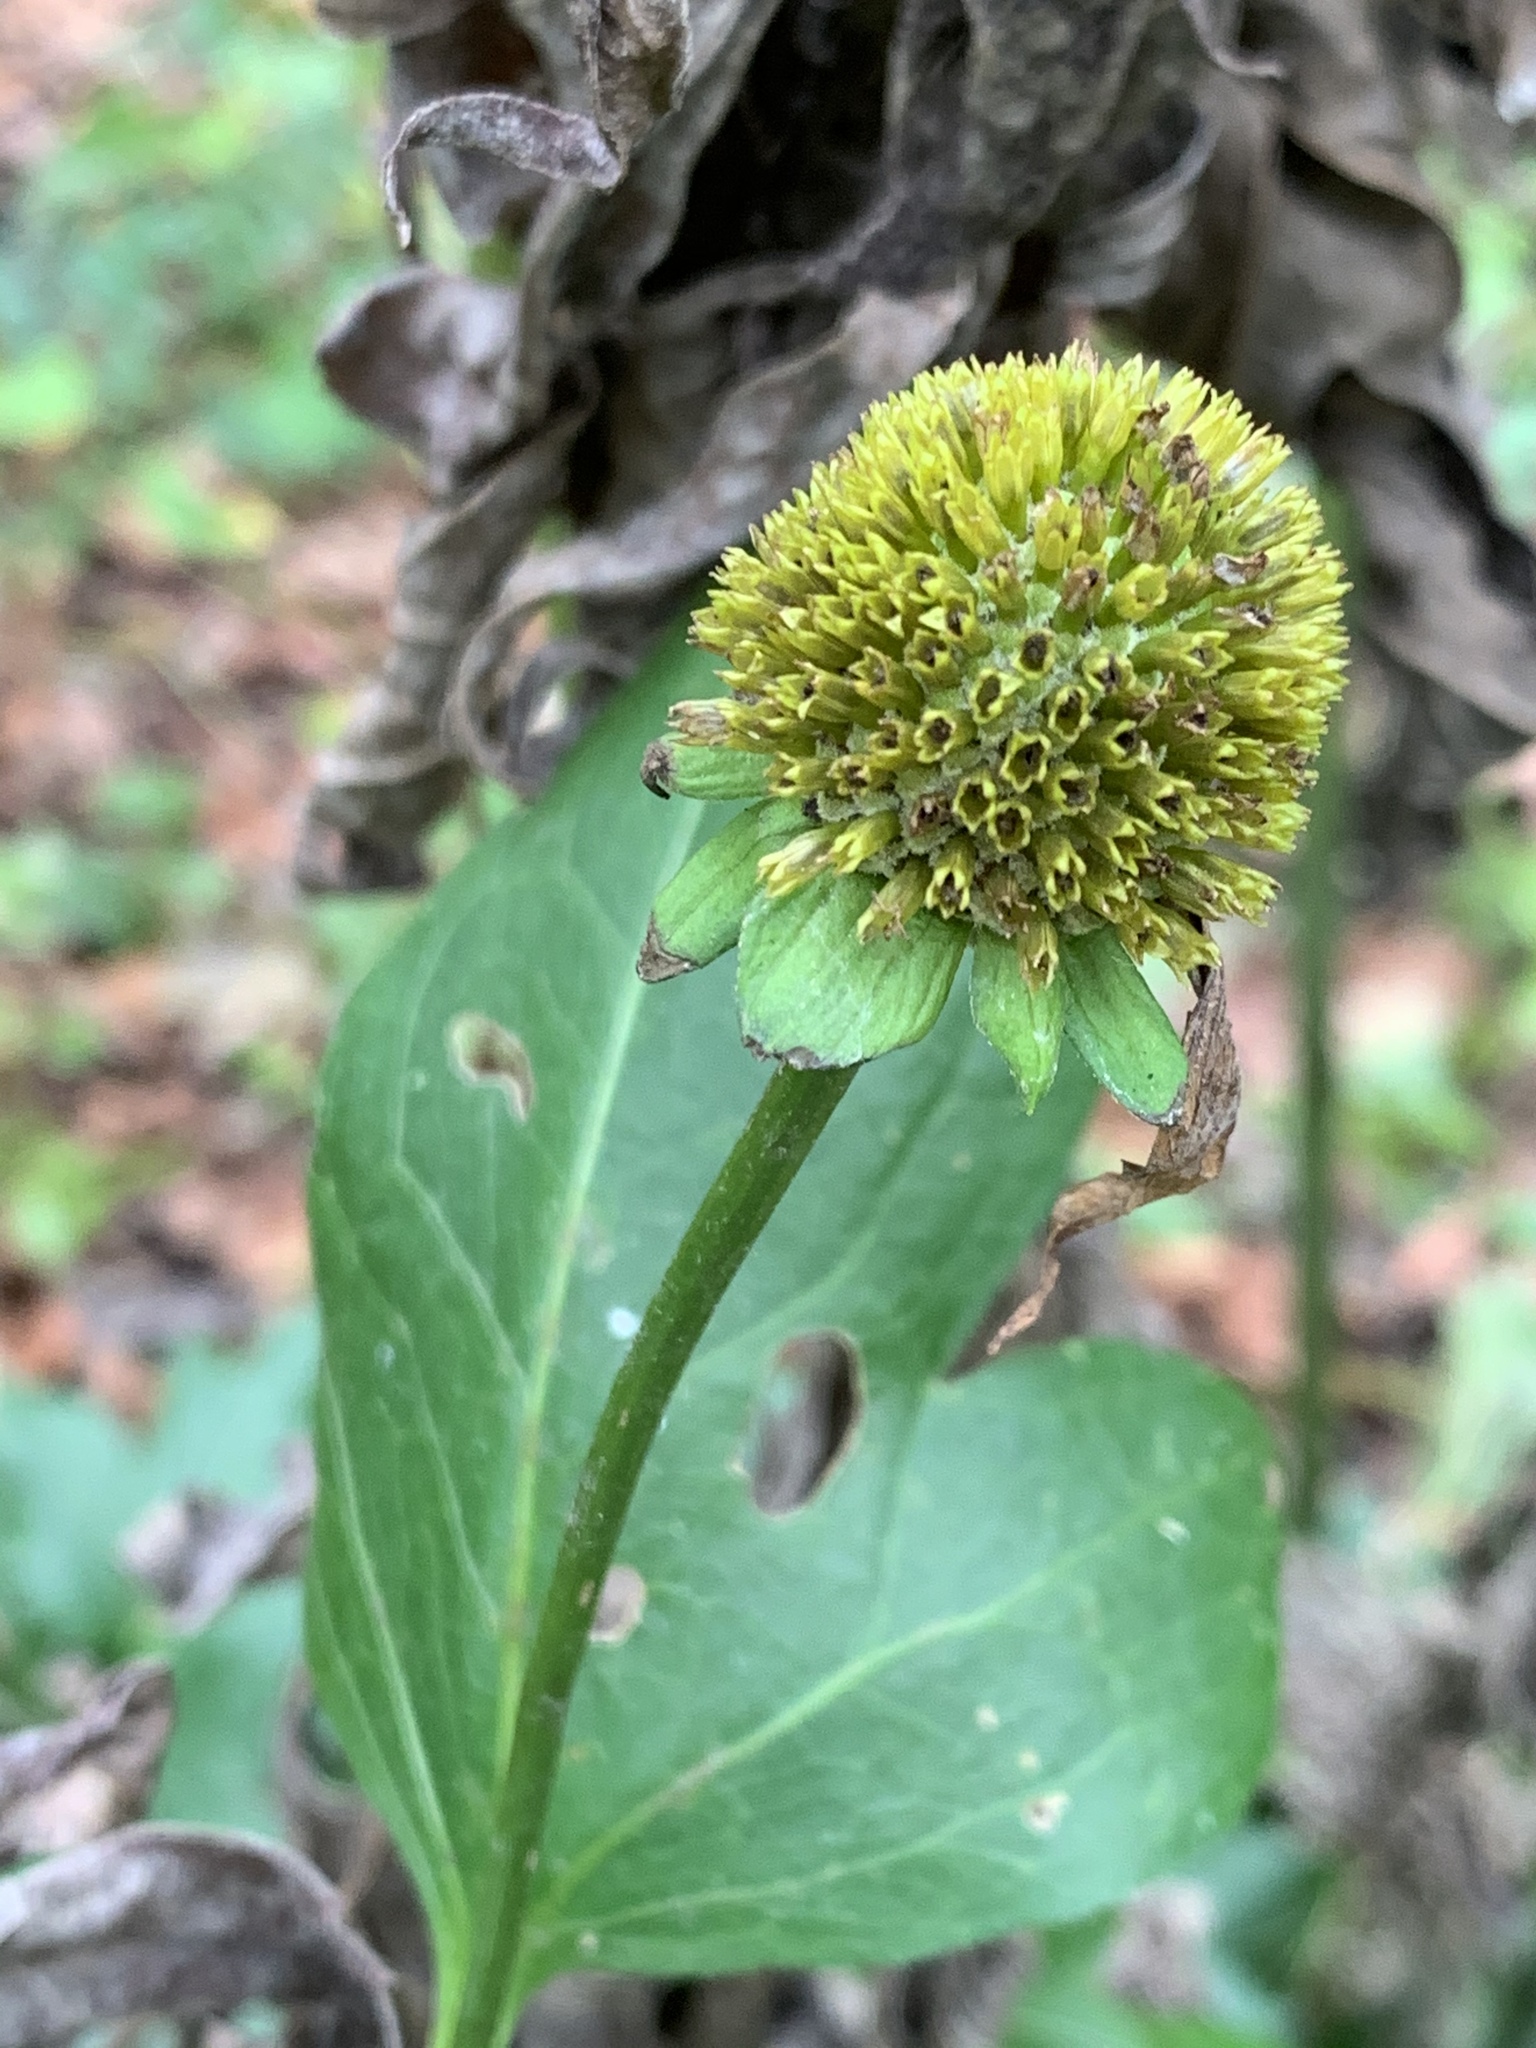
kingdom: Plantae
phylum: Tracheophyta
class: Magnoliopsida
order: Asterales
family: Asteraceae
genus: Rudbeckia
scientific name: Rudbeckia laciniata
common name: Coneflower
